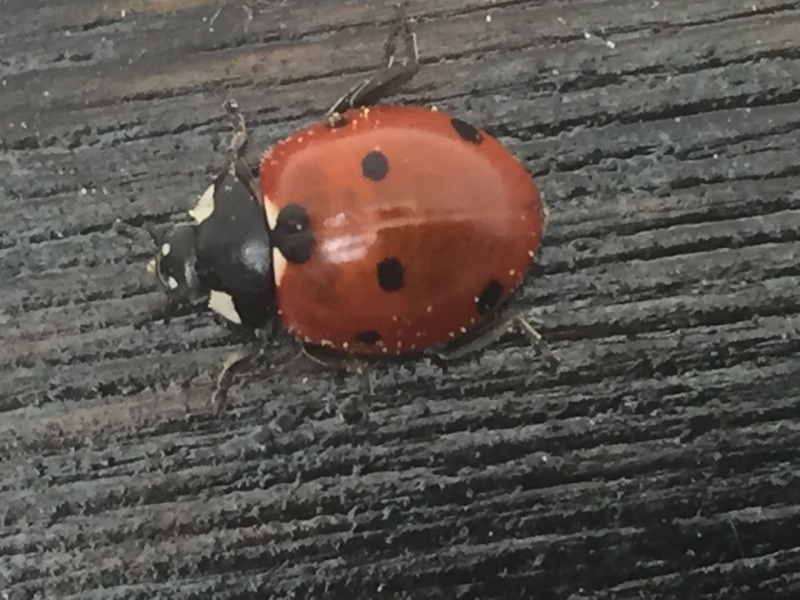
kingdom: Animalia
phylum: Arthropoda
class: Insecta
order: Coleoptera
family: Coccinellidae
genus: Coccinella
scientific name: Coccinella septempunctata
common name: Sevenspotted lady beetle
